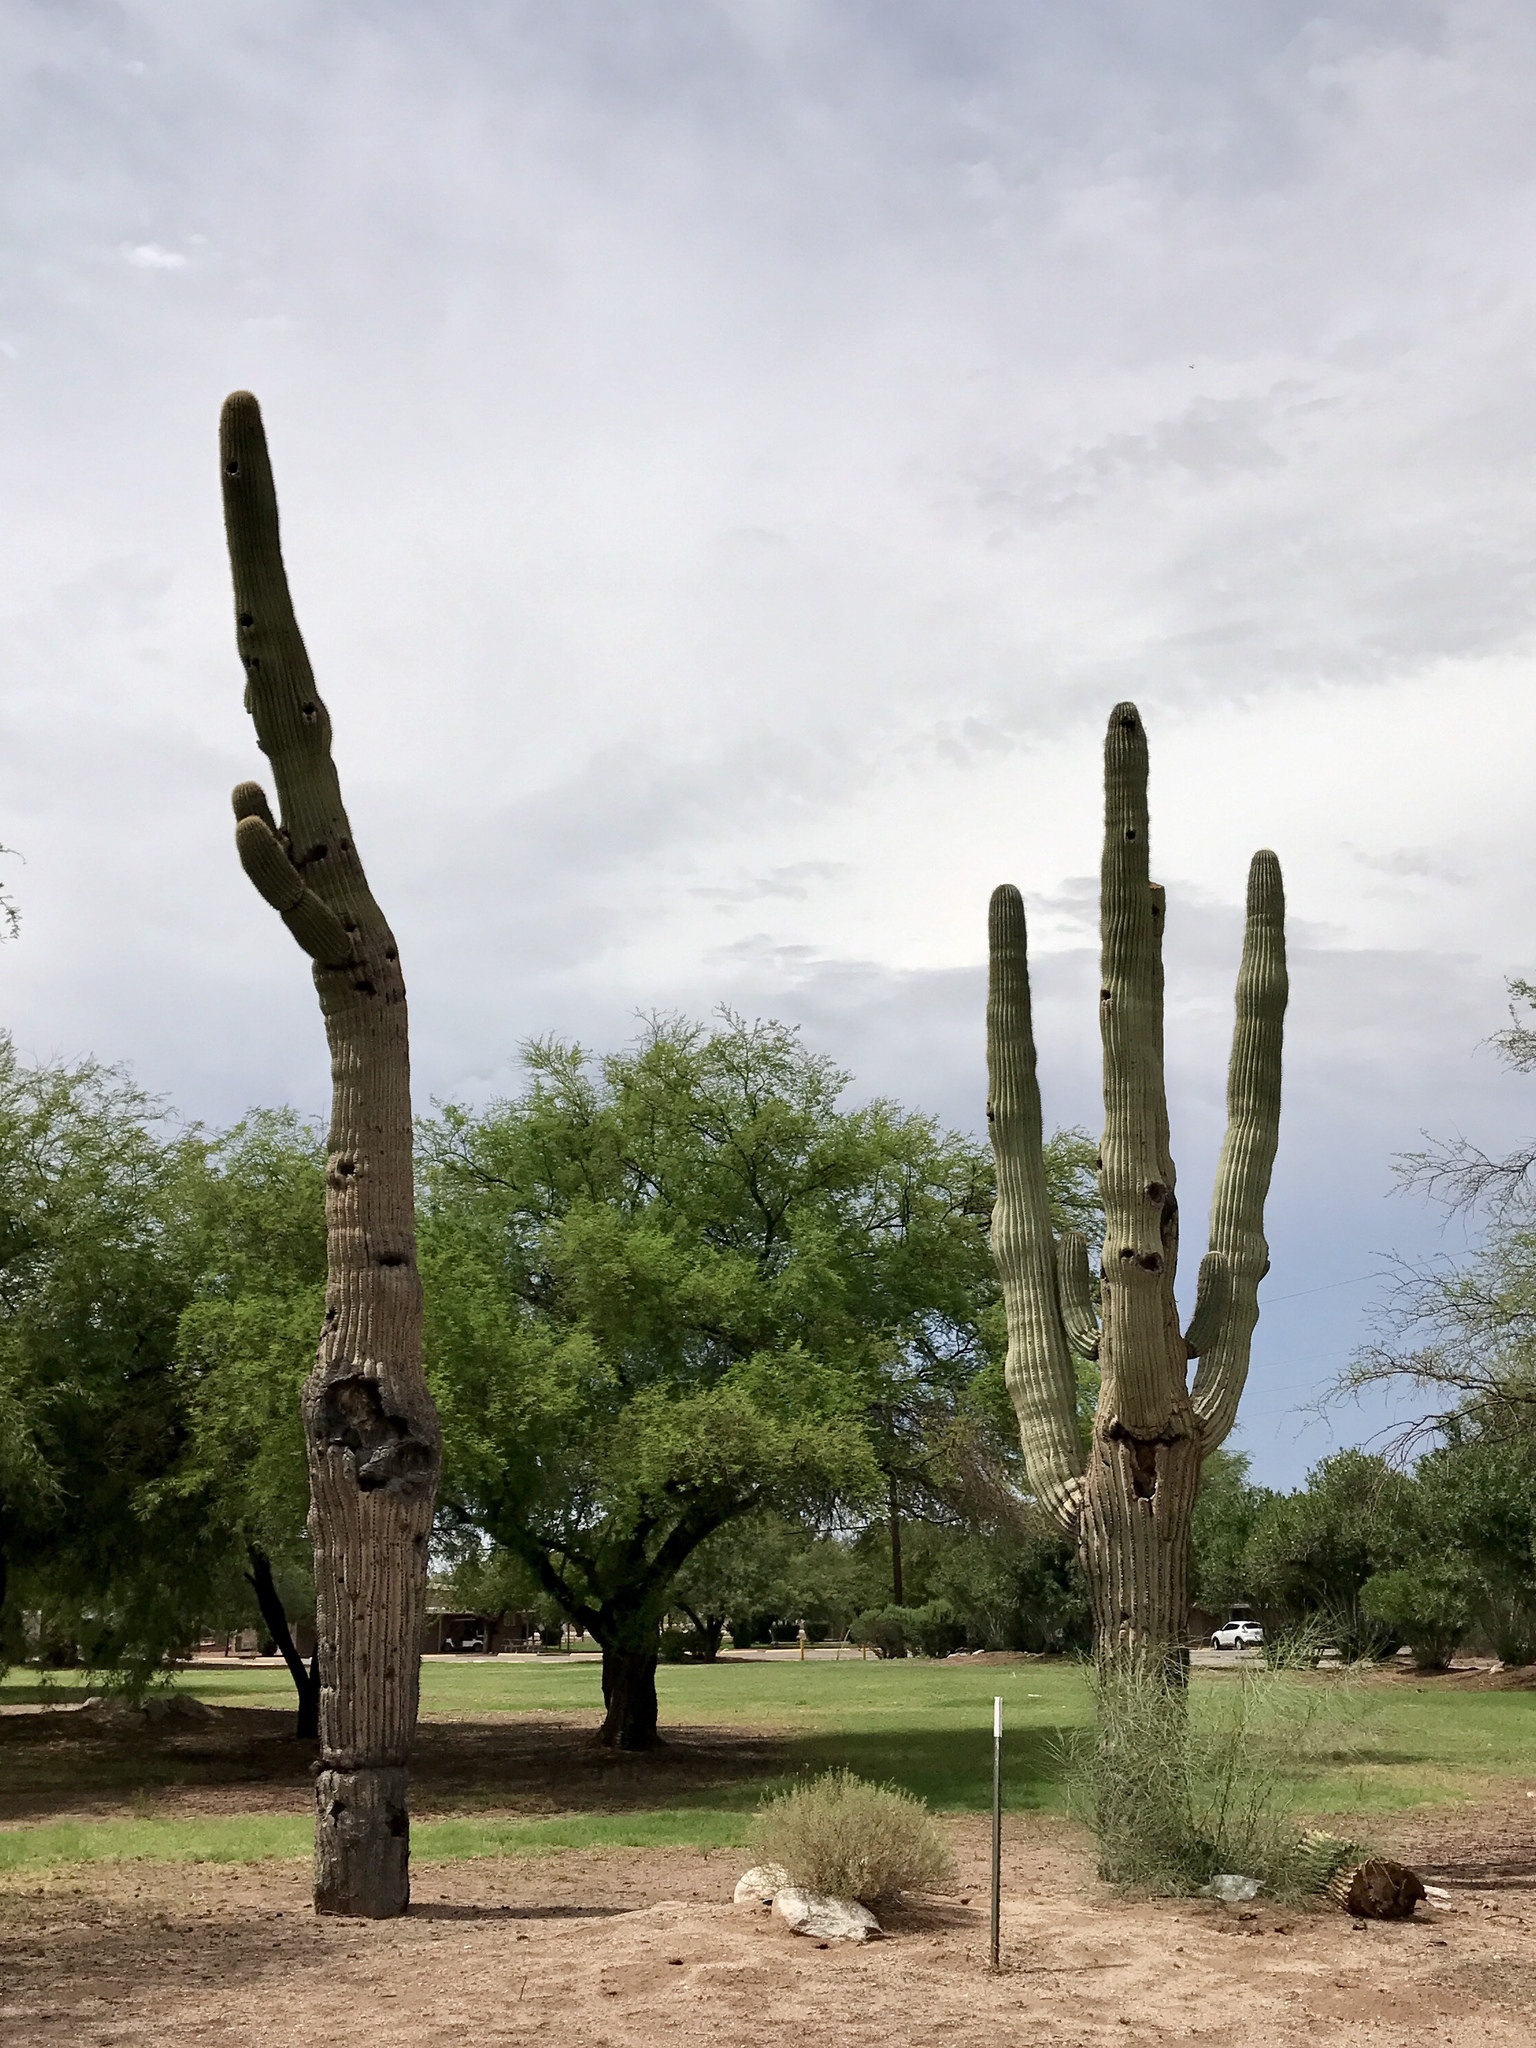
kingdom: Plantae
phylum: Tracheophyta
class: Magnoliopsida
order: Caryophyllales
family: Cactaceae
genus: Carnegiea
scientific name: Carnegiea gigantea
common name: Saguaro
